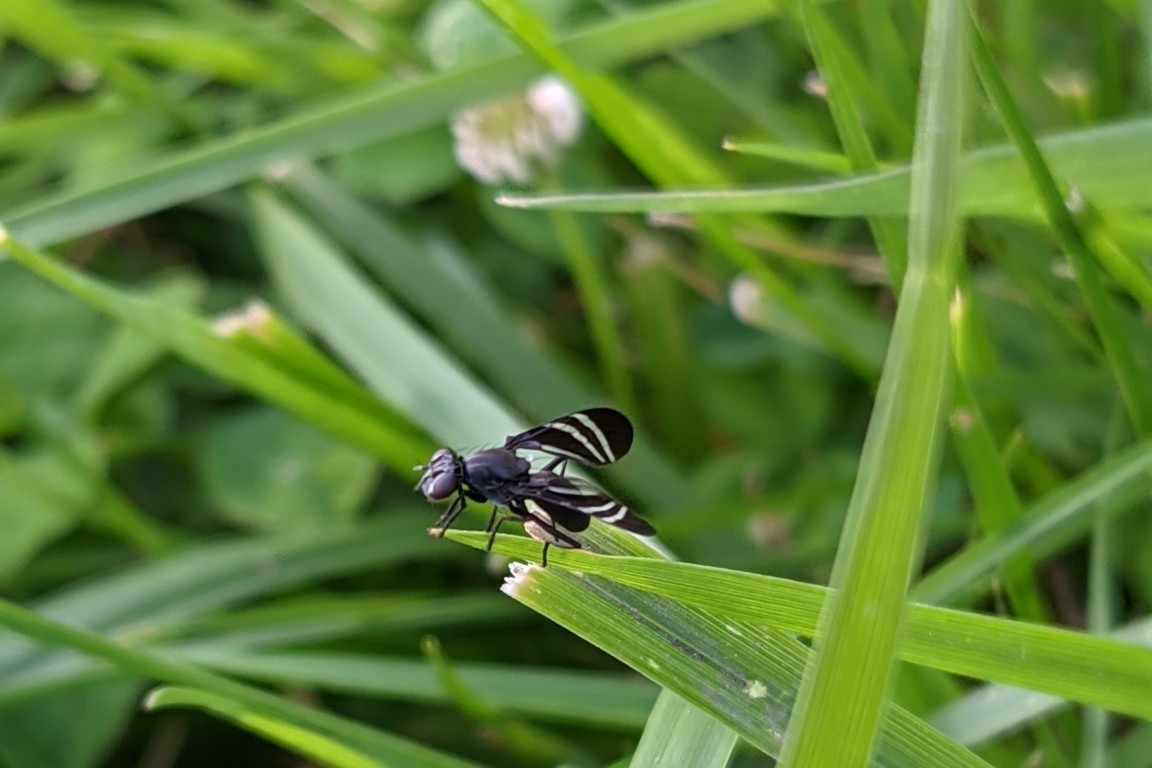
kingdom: Animalia
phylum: Arthropoda
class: Insecta
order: Diptera
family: Ulidiidae
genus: Tritoxa
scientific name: Tritoxa flexa
